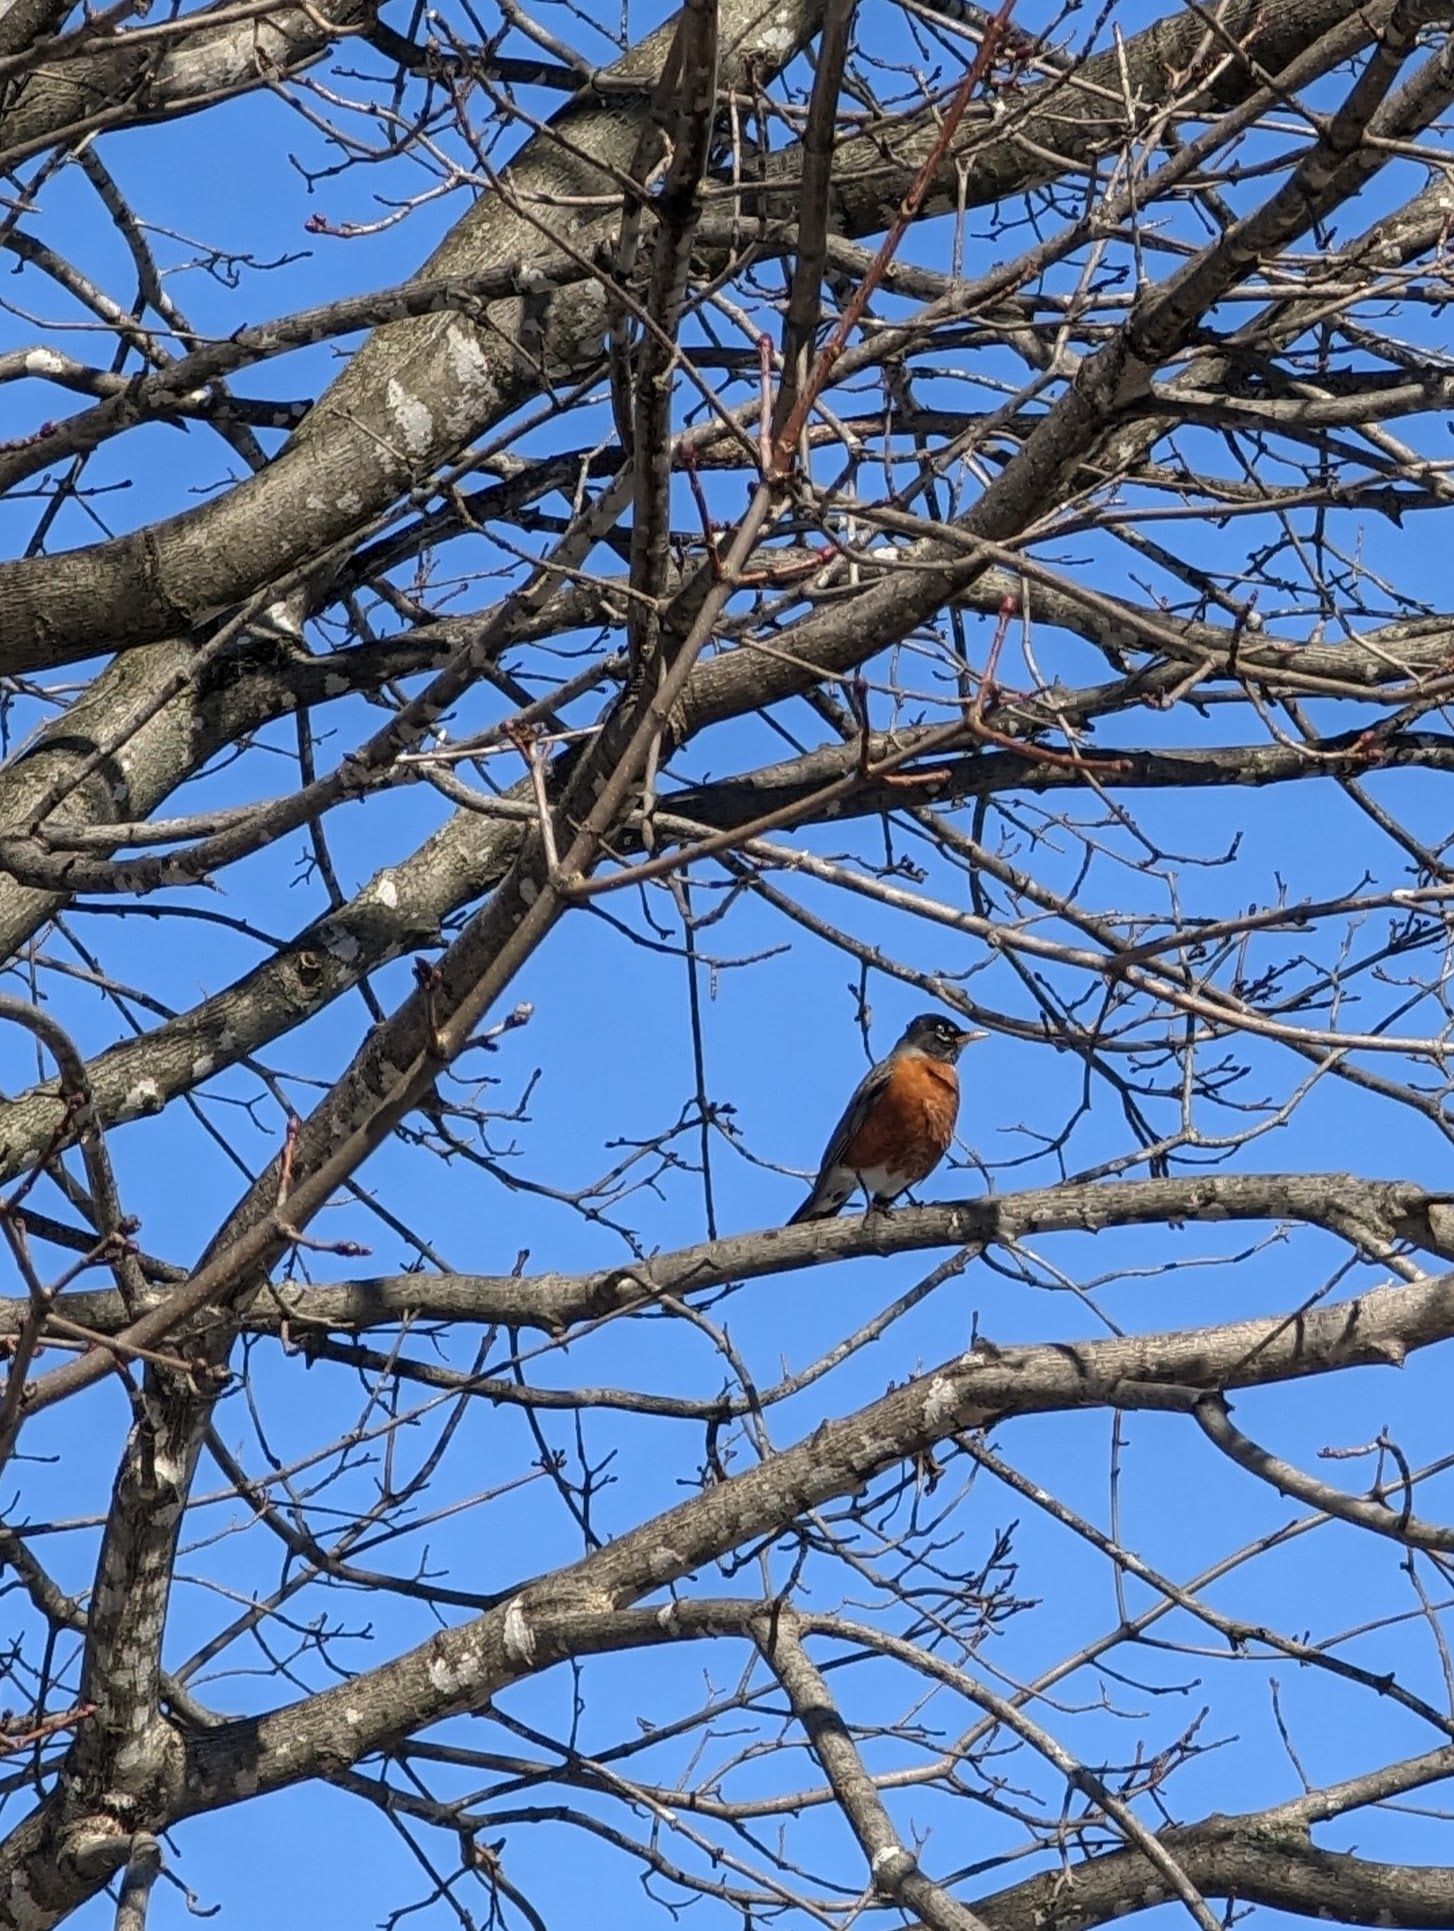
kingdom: Animalia
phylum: Chordata
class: Aves
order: Passeriformes
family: Turdidae
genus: Turdus
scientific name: Turdus migratorius
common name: American robin
